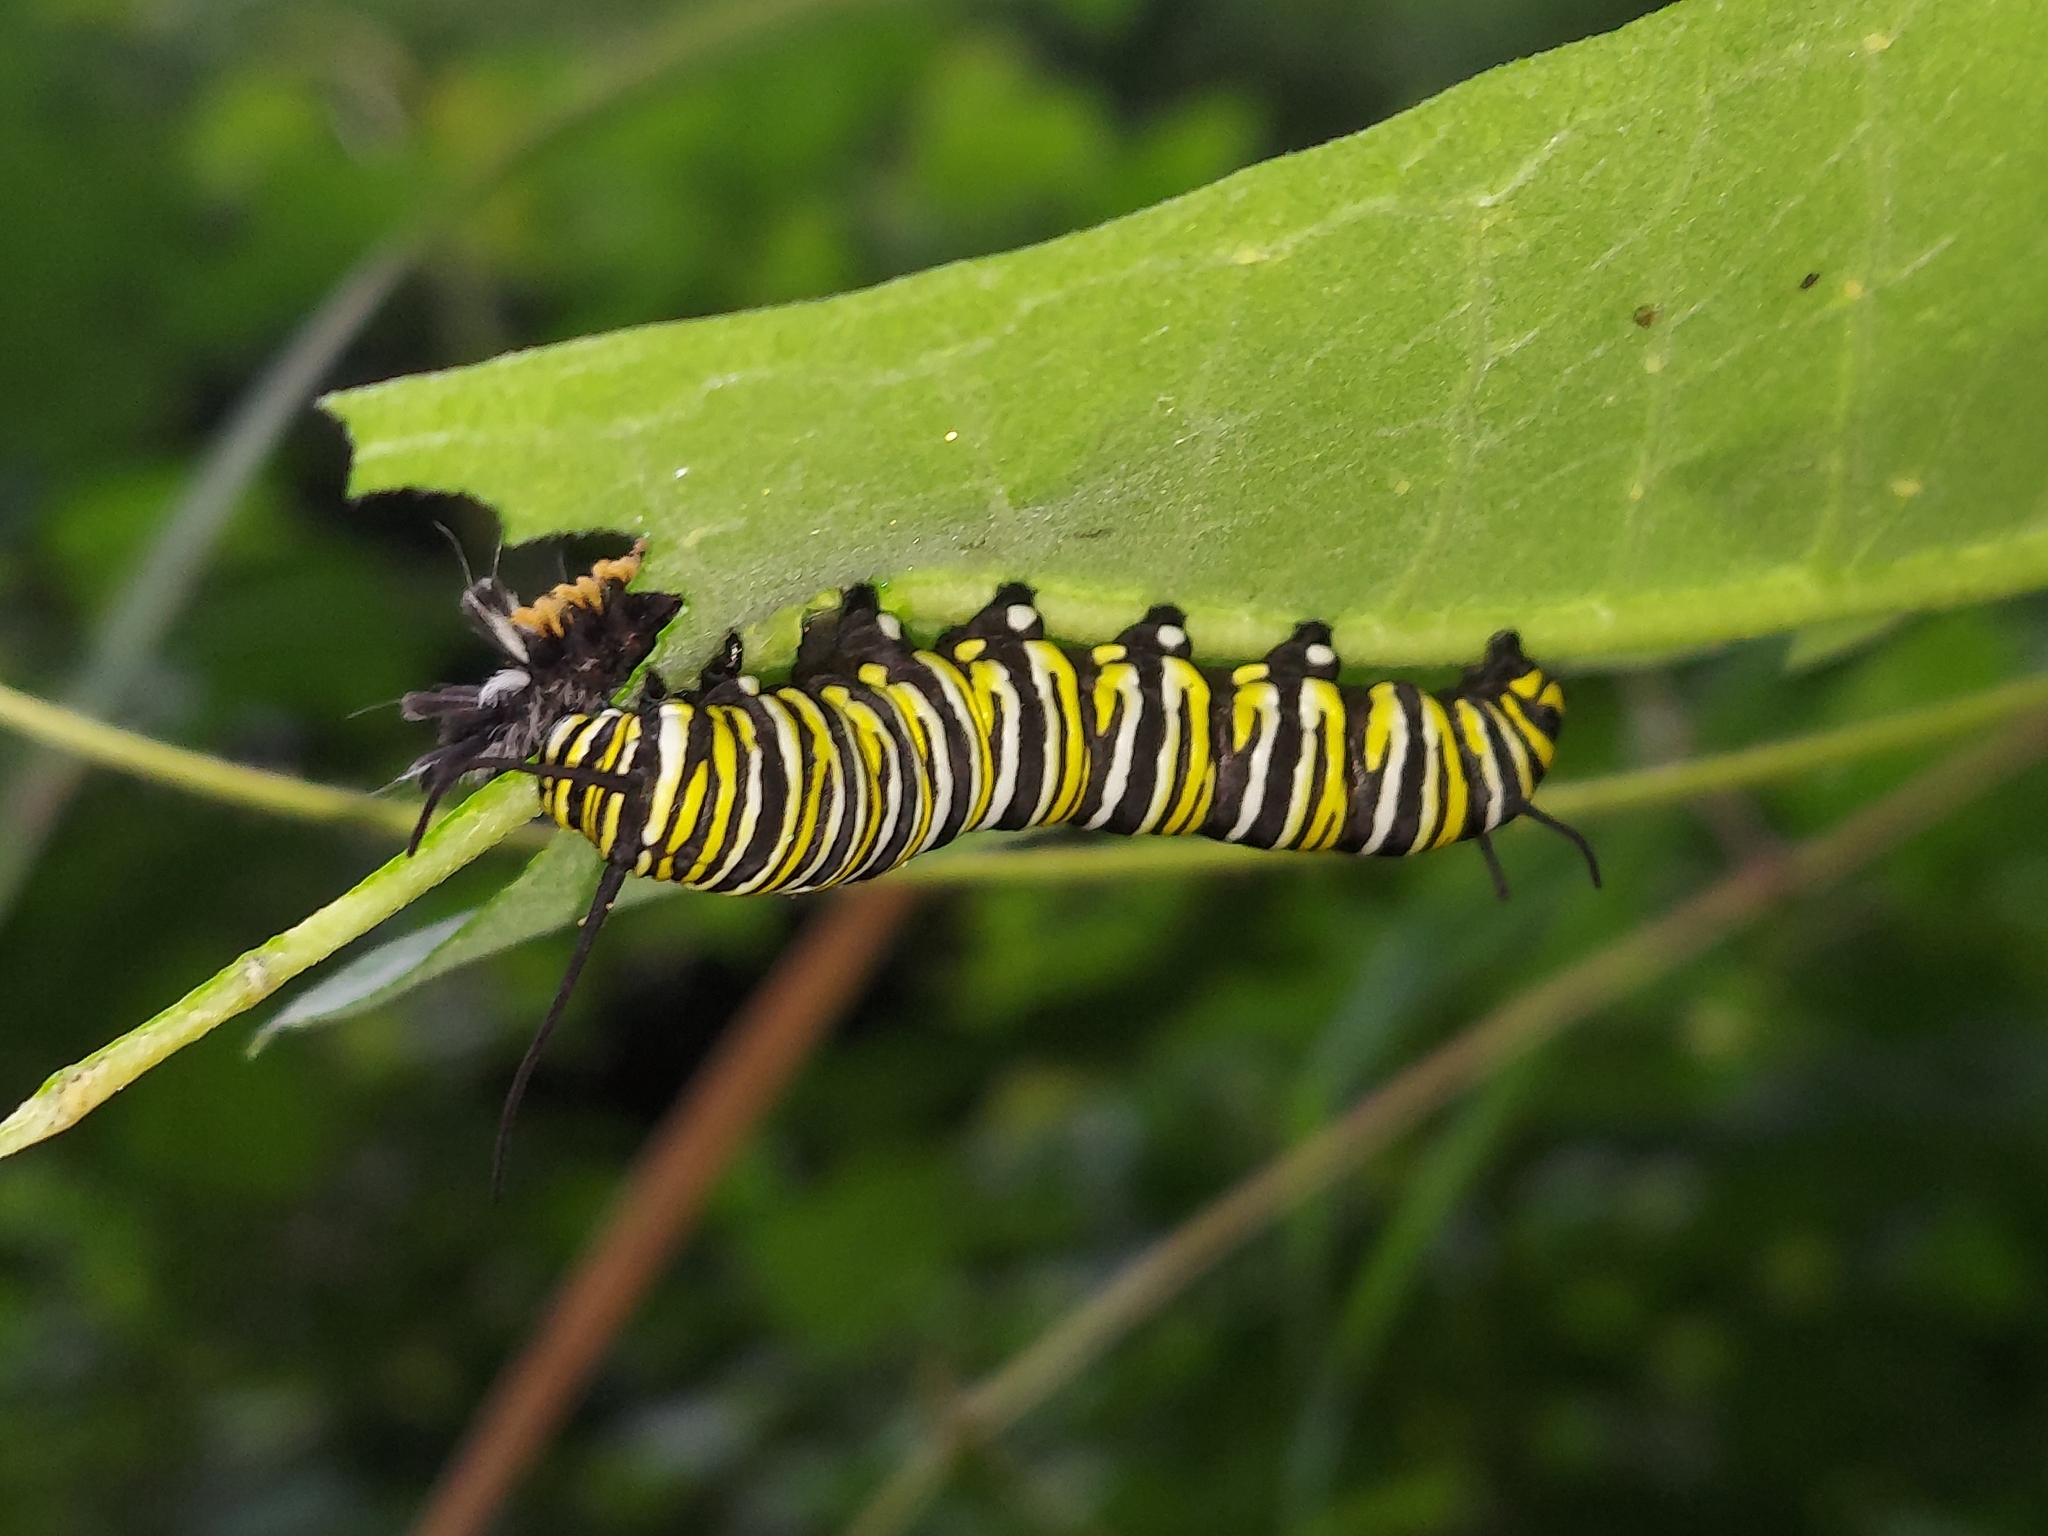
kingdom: Animalia
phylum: Arthropoda
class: Insecta
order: Lepidoptera
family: Nymphalidae
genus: Danaus
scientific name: Danaus plexippus
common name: Monarch
